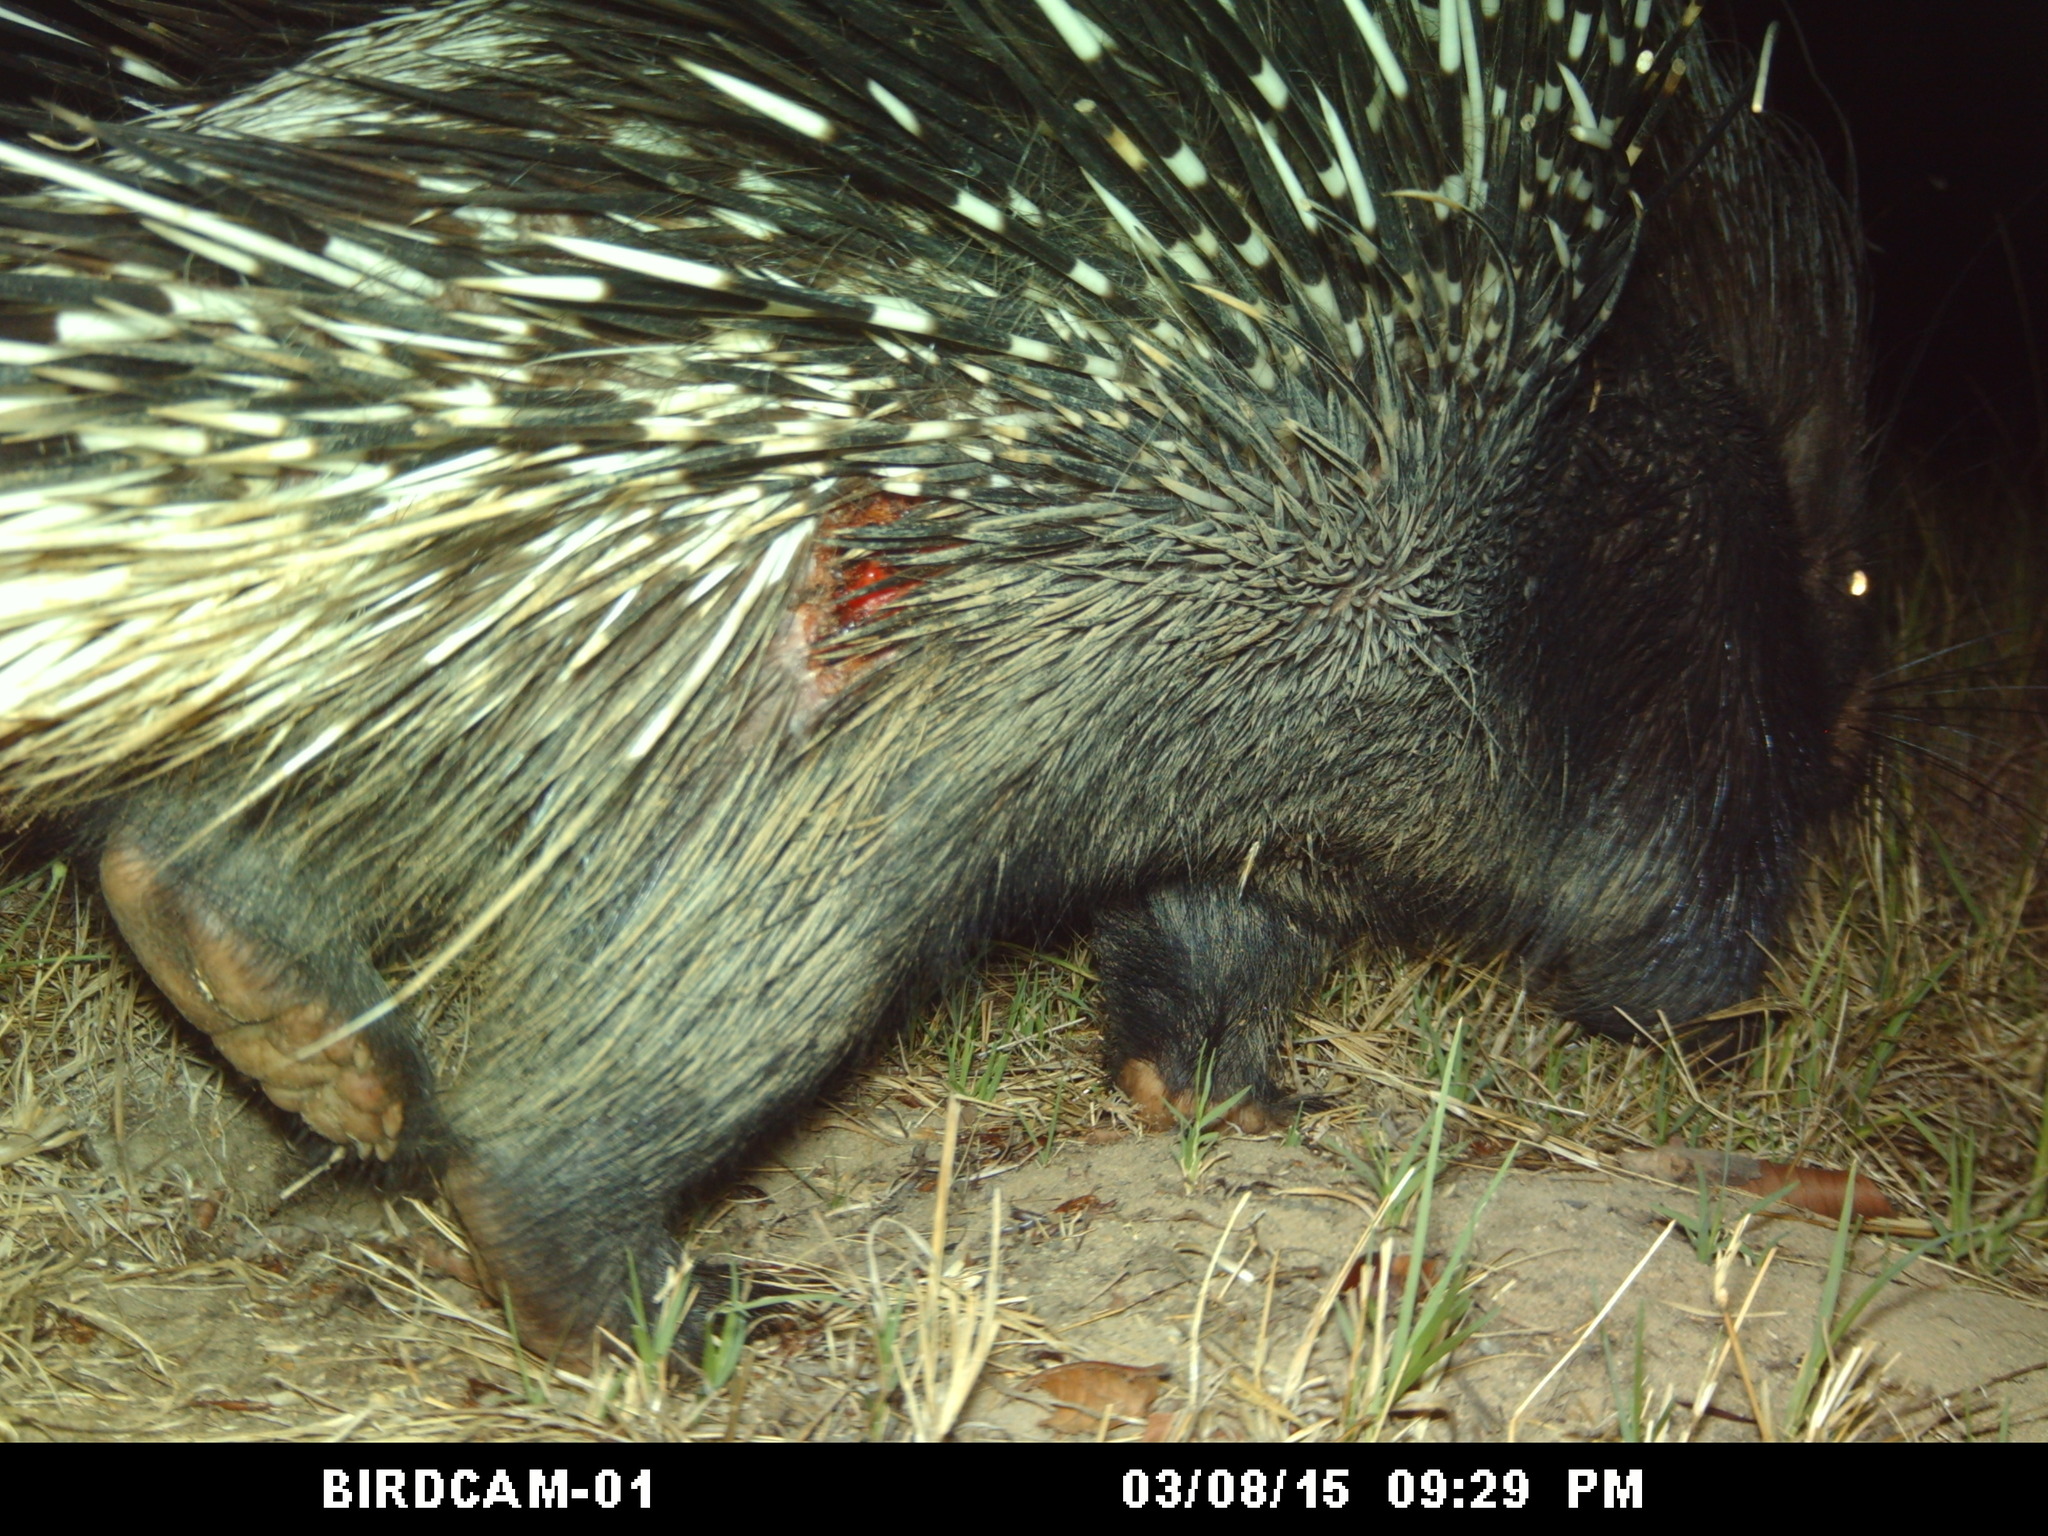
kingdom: Animalia
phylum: Chordata
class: Mammalia
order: Rodentia
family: Hystricidae
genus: Hystrix
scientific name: Hystrix africaeaustralis
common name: Cape porcupine
